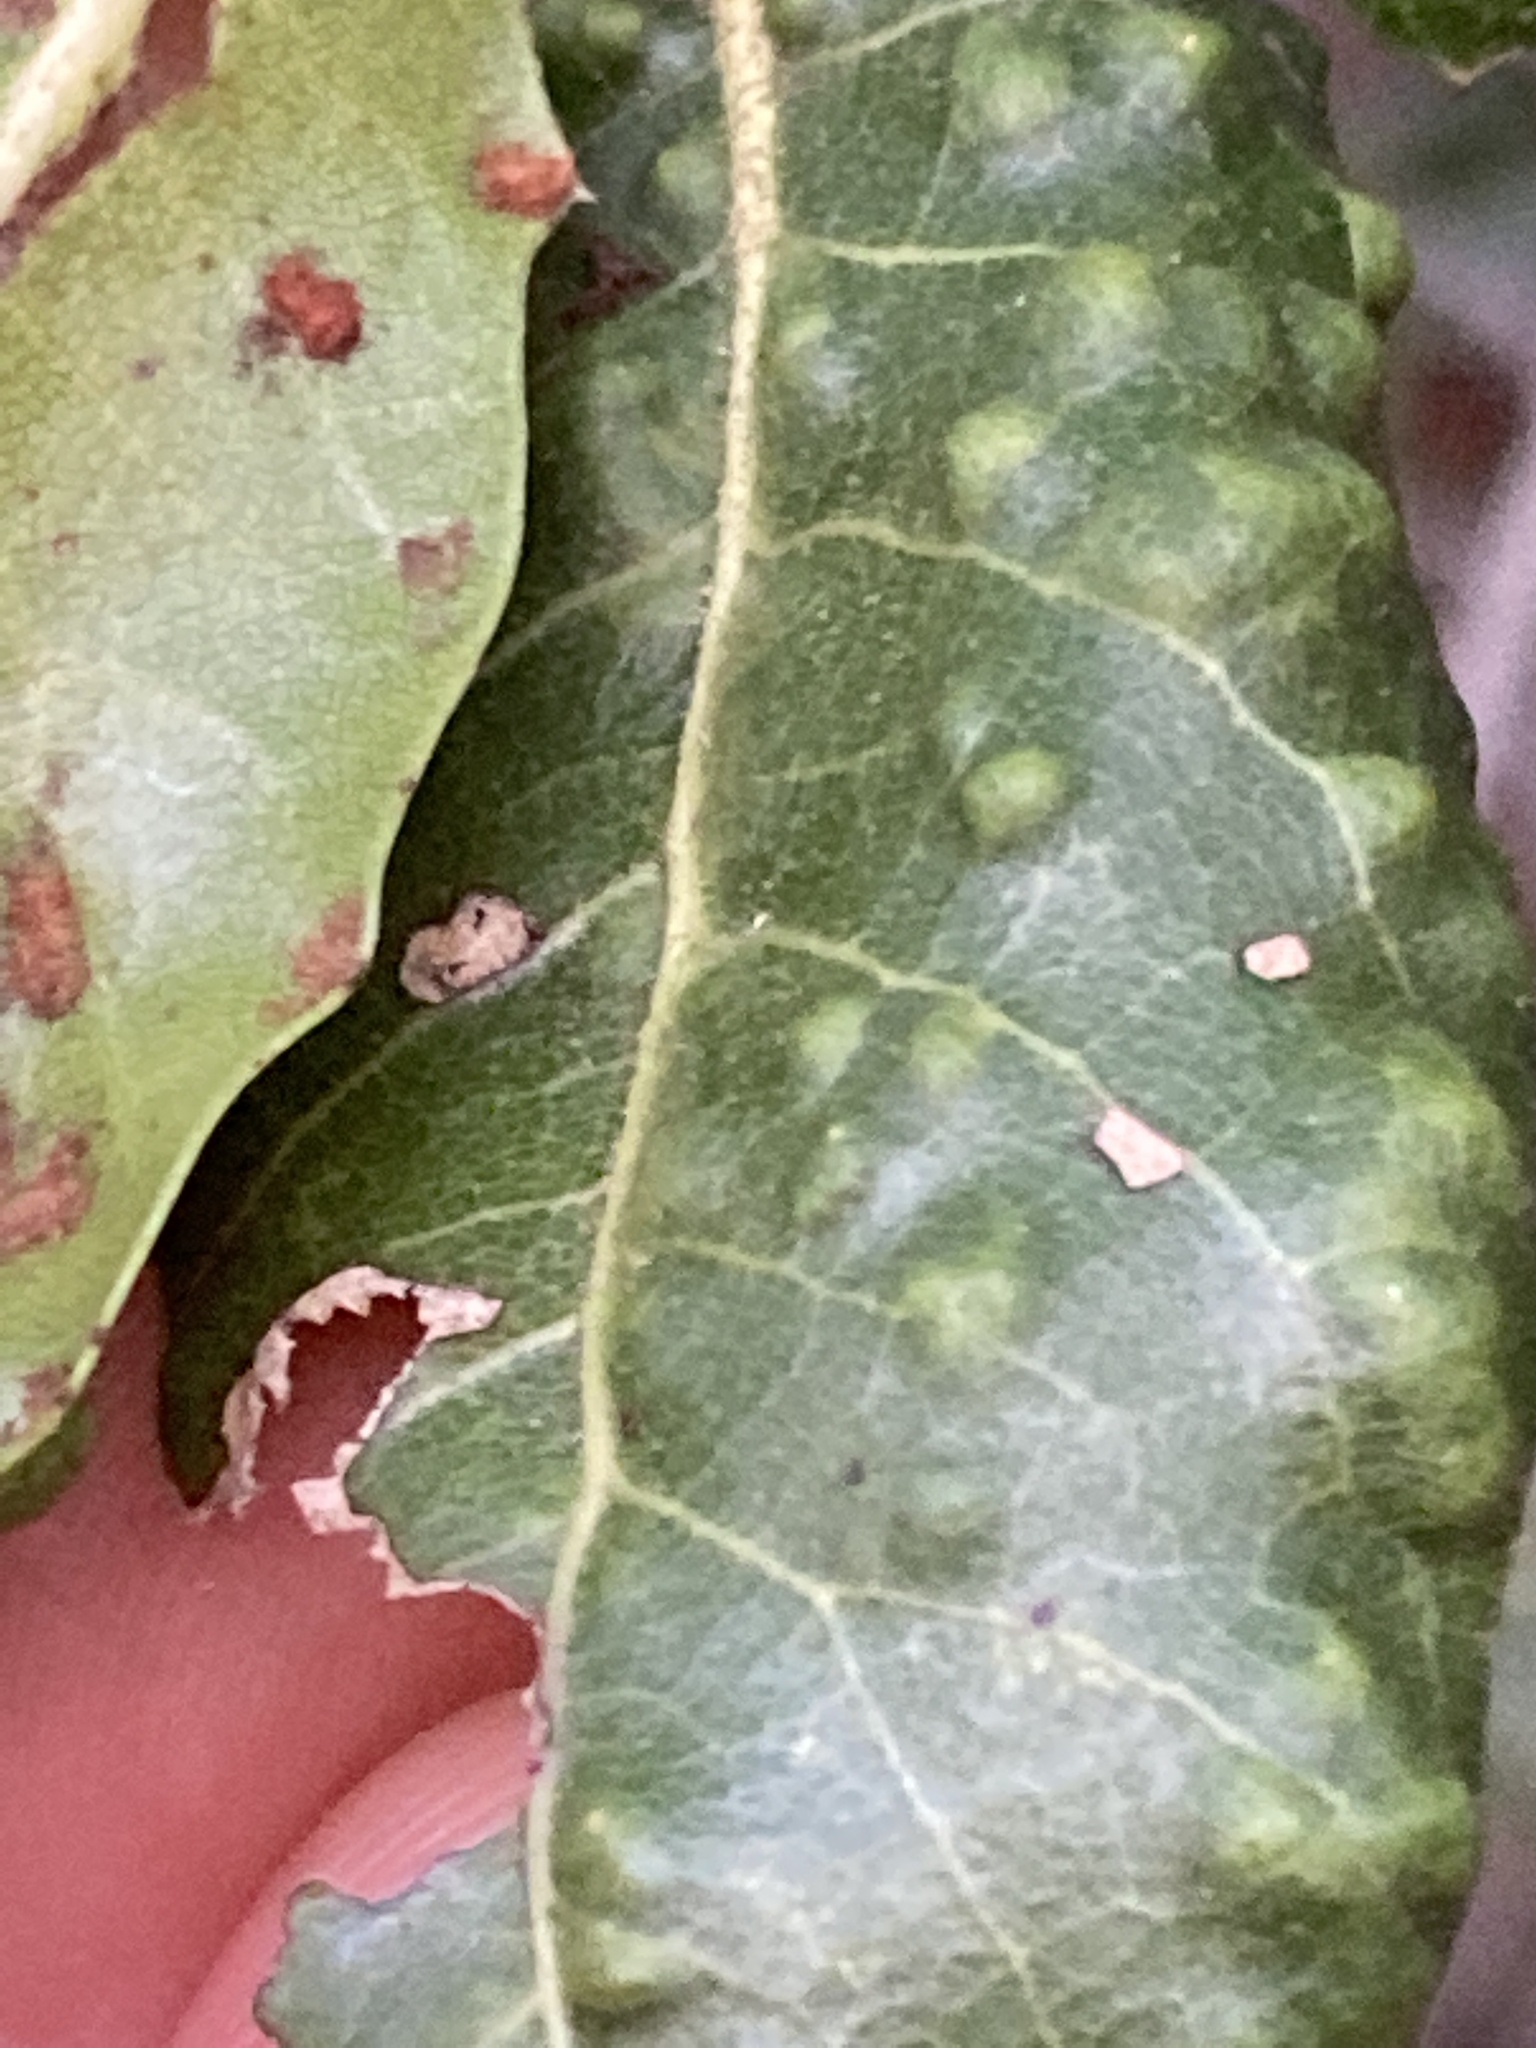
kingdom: Animalia
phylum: Arthropoda
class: Arachnida
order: Trombidiformes
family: Eriophyidae
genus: Aceria
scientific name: Aceria
